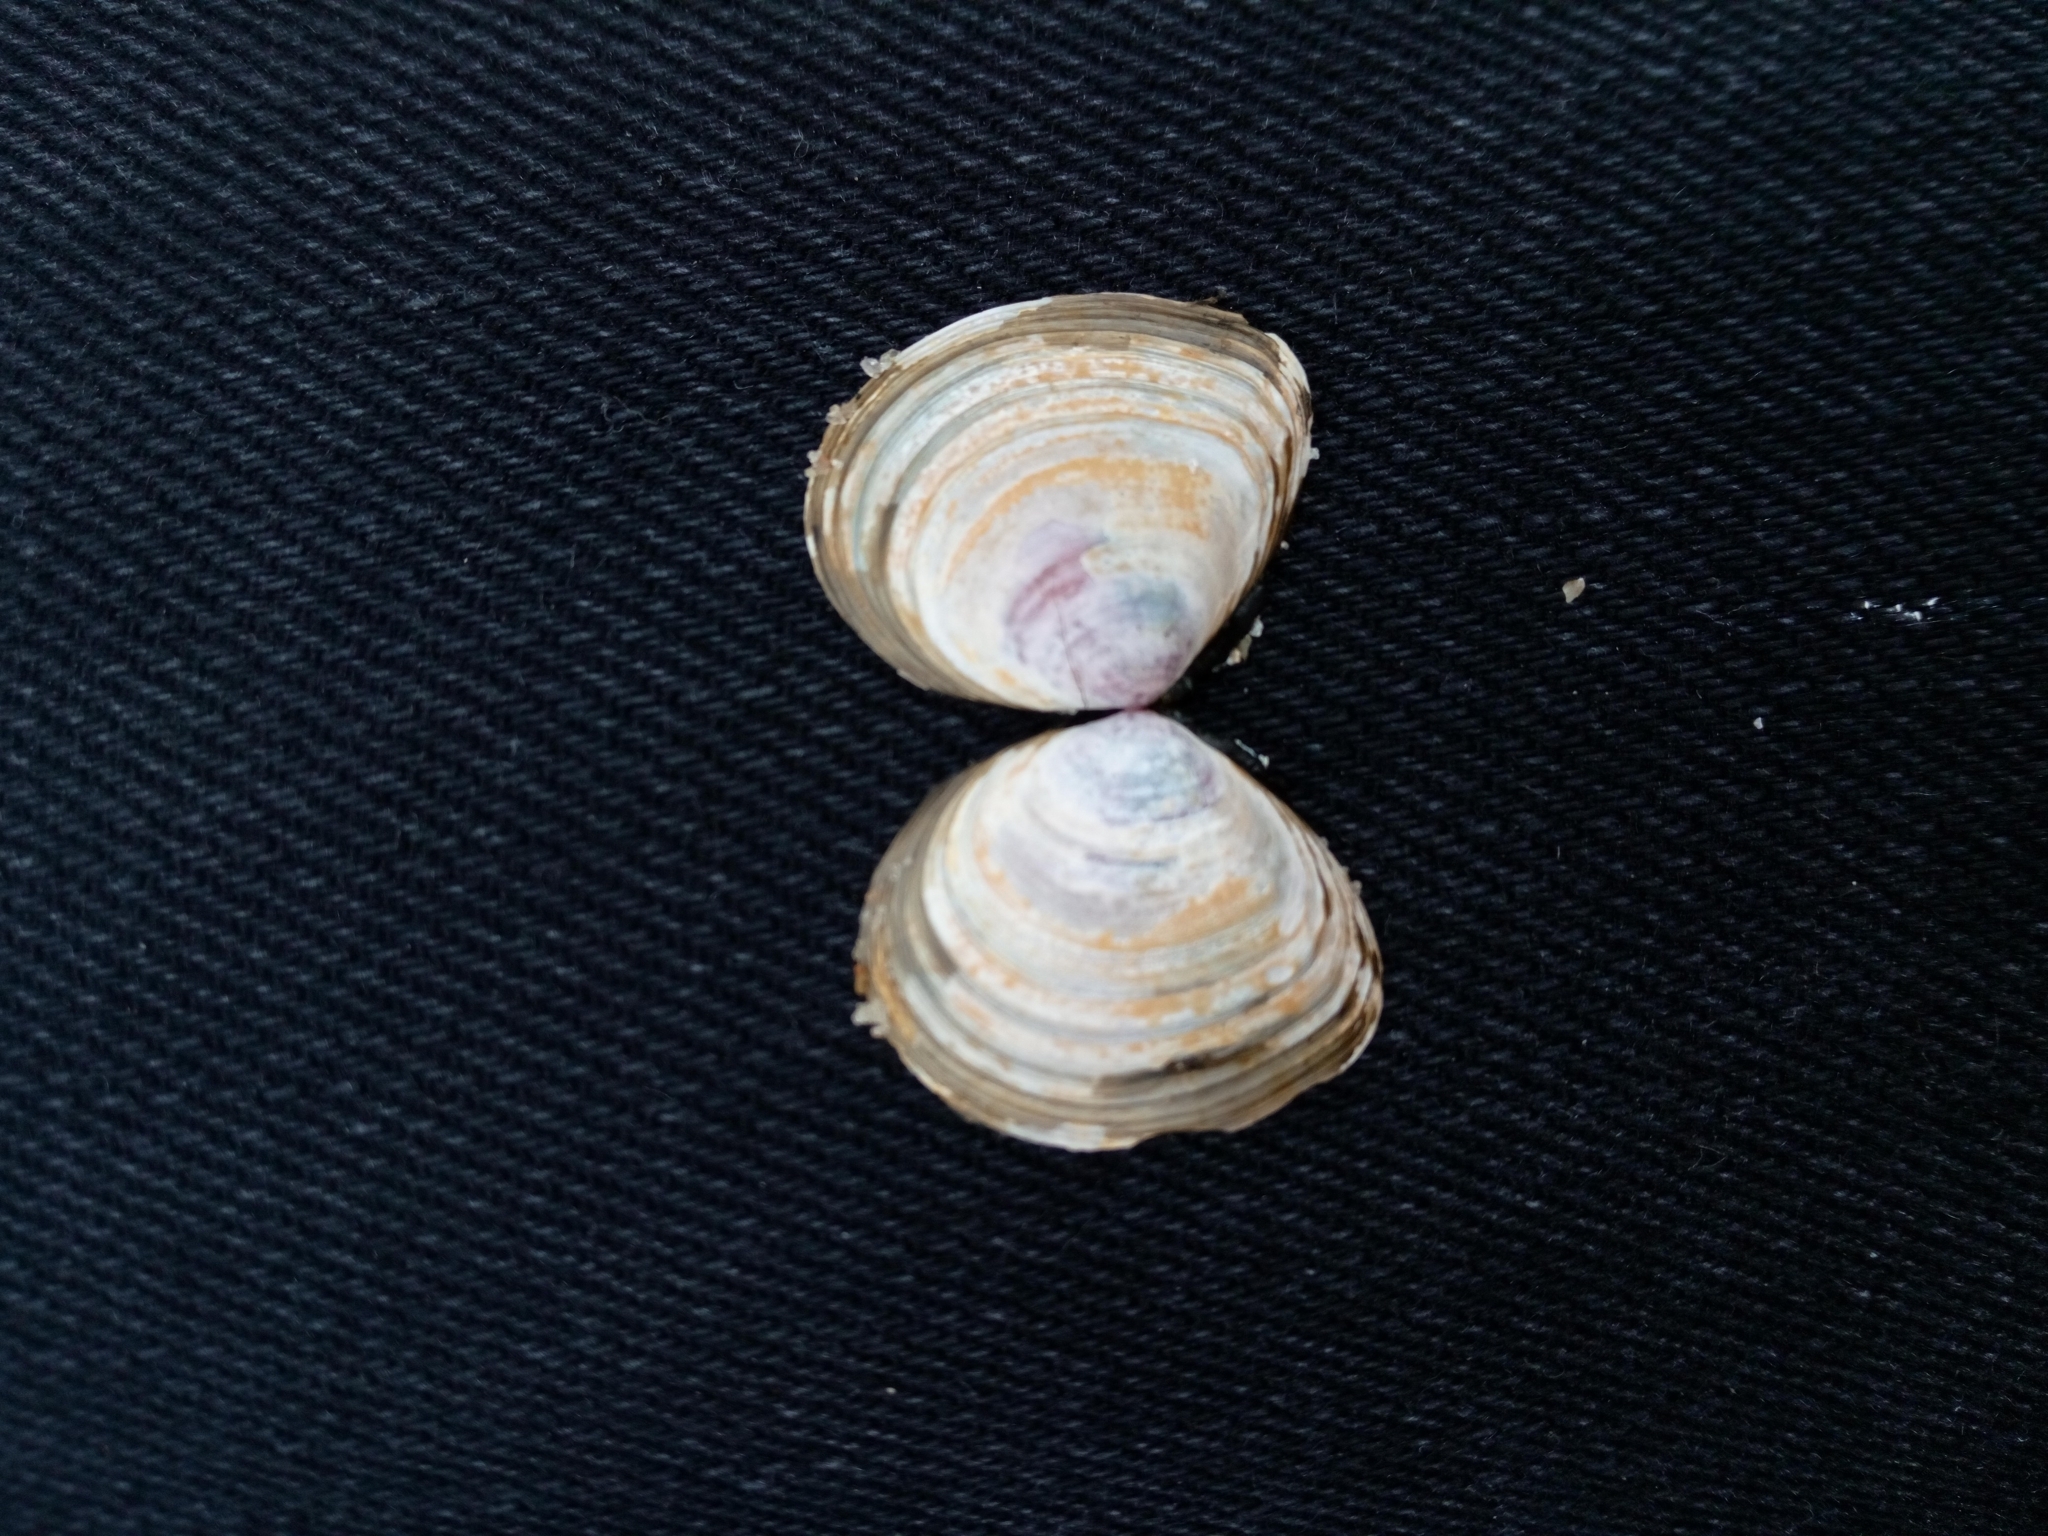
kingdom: Animalia
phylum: Mollusca
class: Bivalvia
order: Cardiida
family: Tellinidae
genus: Macoma
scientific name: Macoma balthica
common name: Baltic tellin
